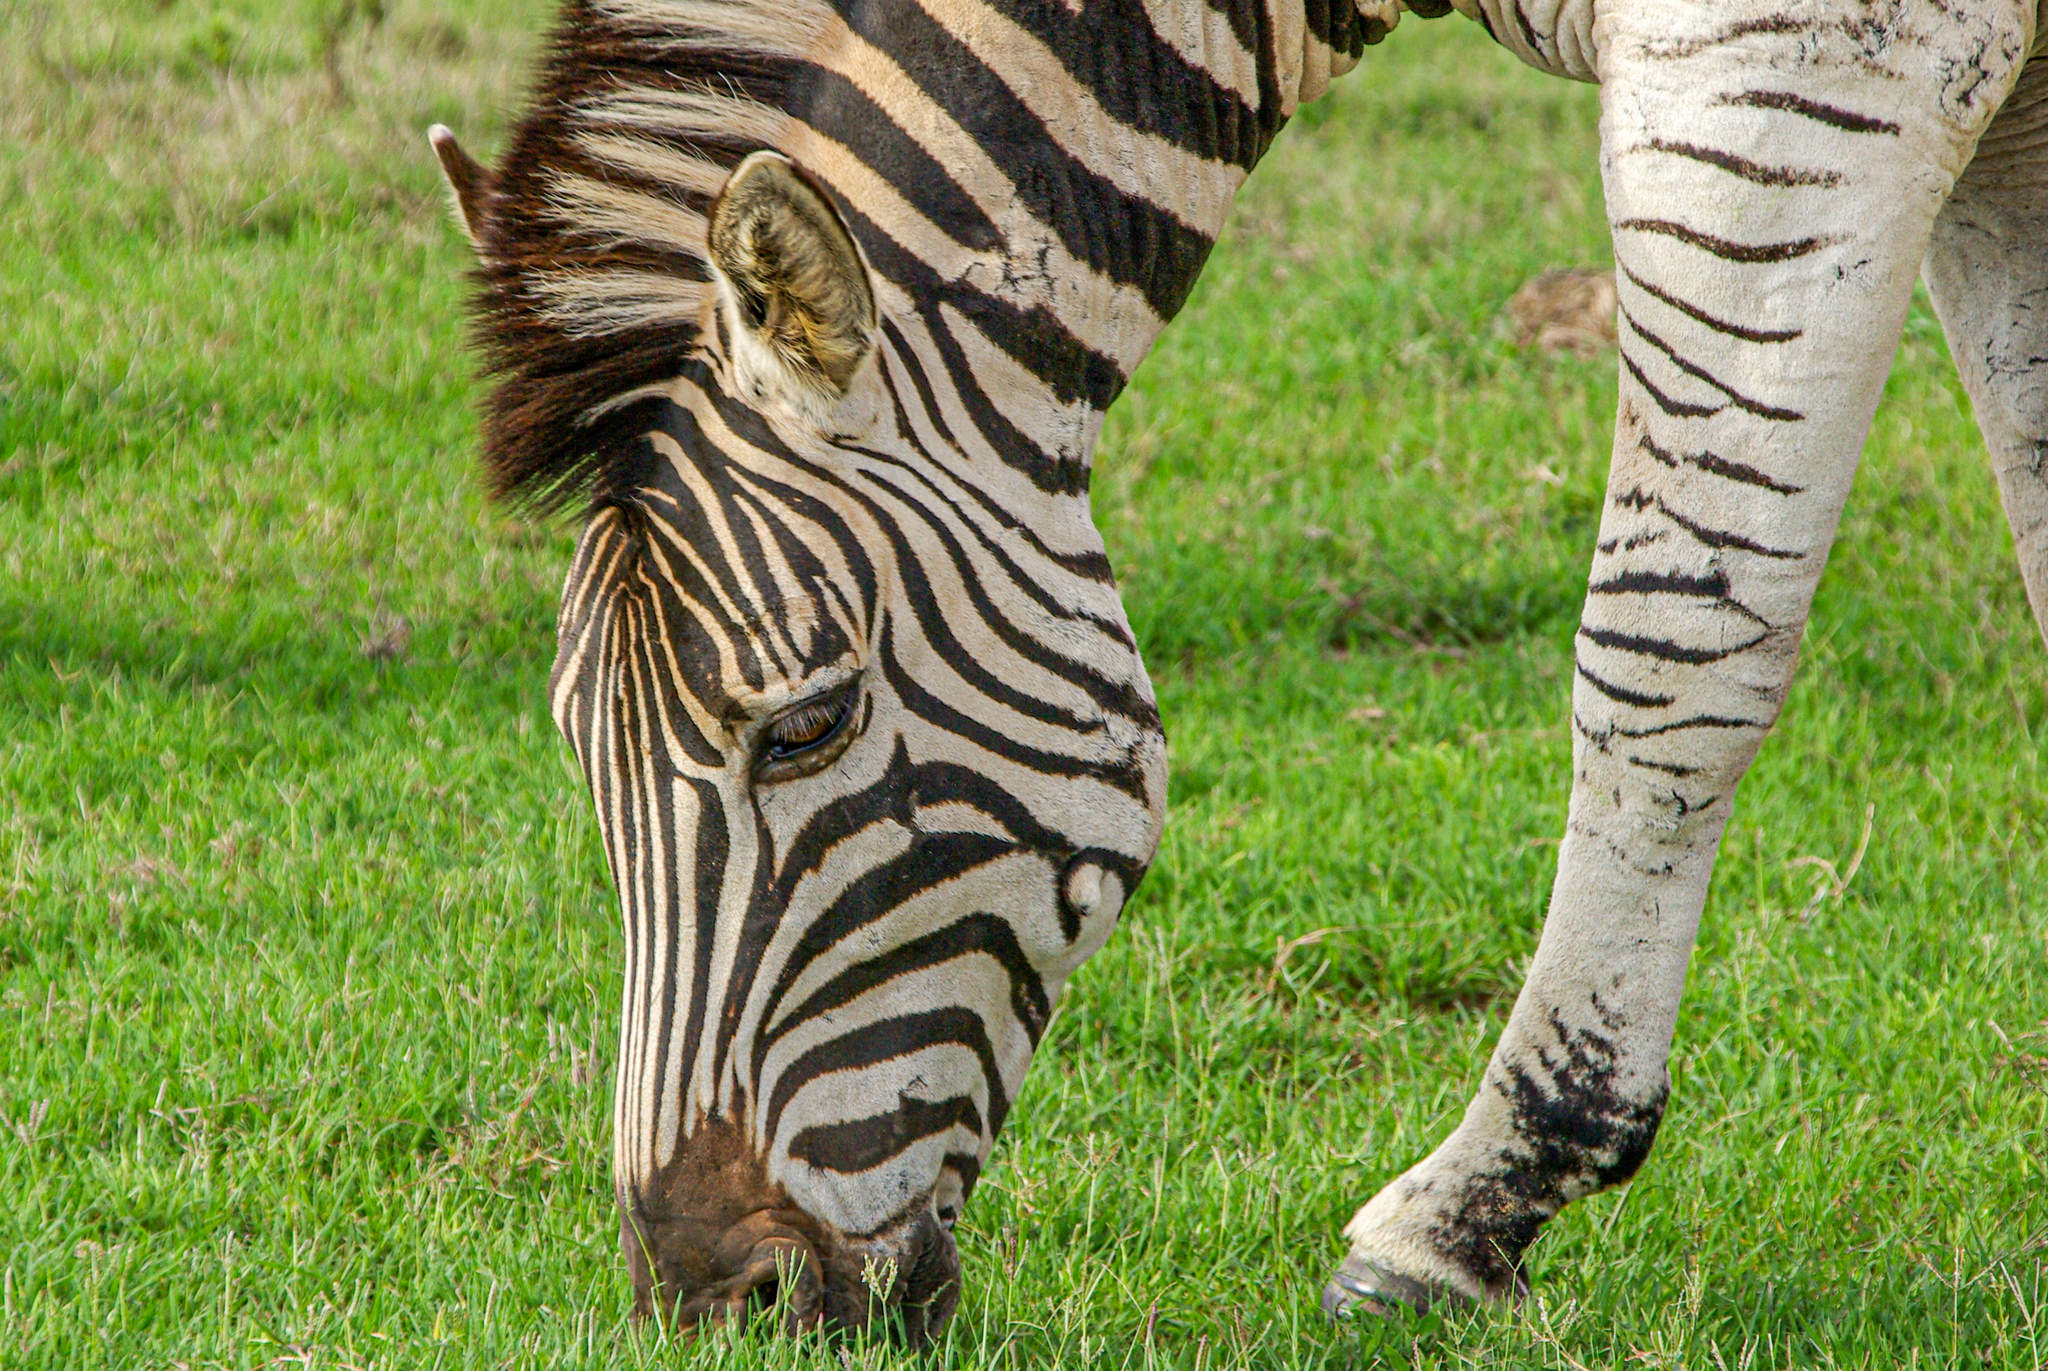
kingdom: Animalia
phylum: Chordata
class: Mammalia
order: Perissodactyla
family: Equidae
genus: Equus
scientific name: Equus quagga
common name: Plains zebra
